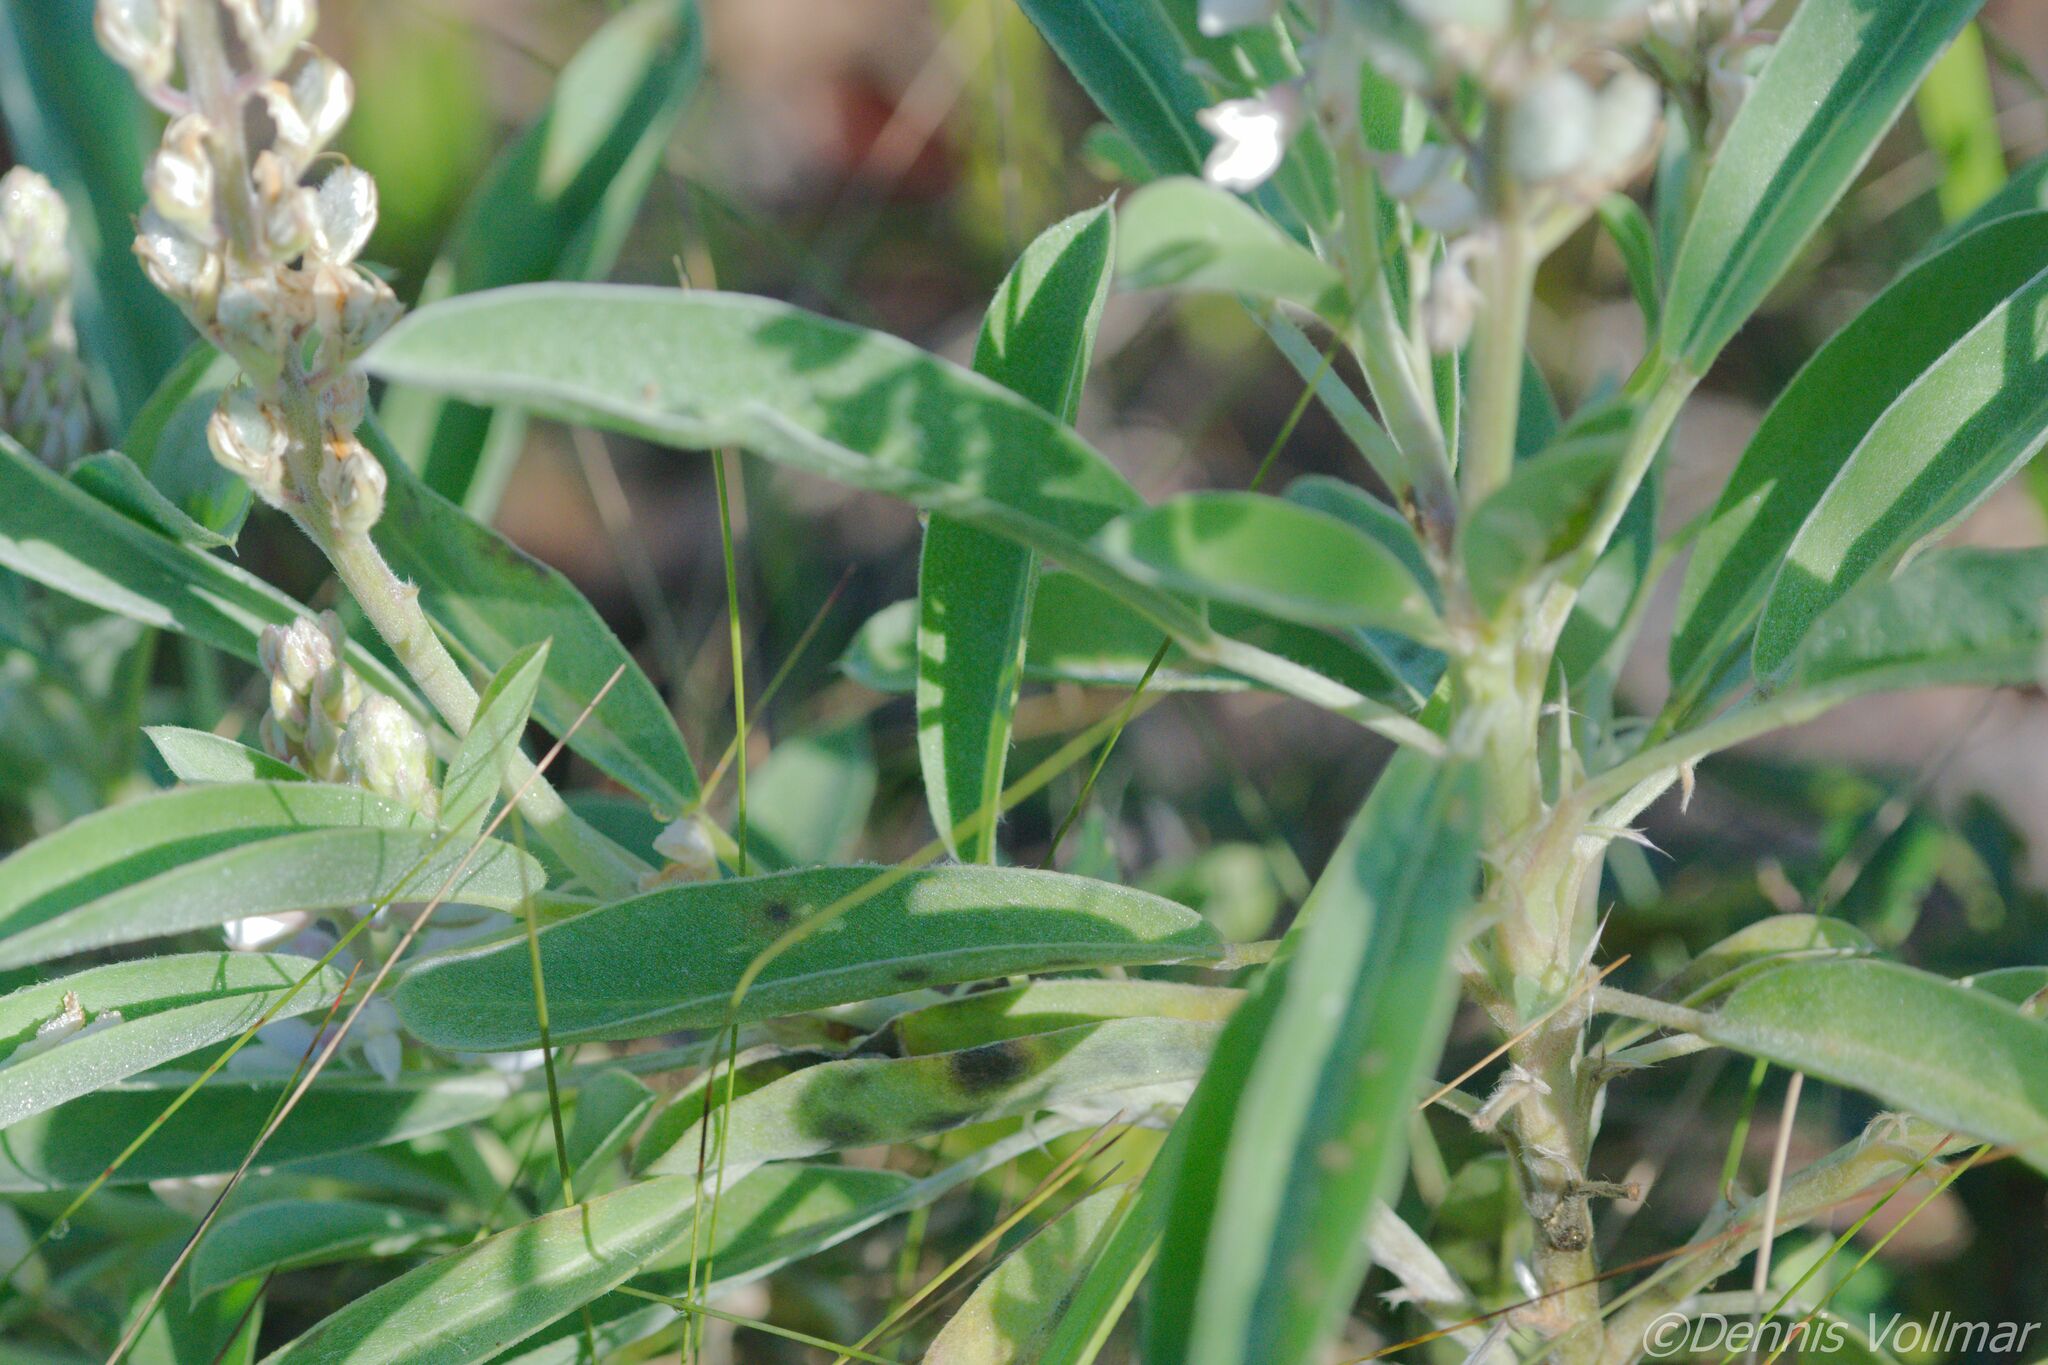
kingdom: Plantae
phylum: Tracheophyta
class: Magnoliopsida
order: Fabales
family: Fabaceae
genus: Lupinus
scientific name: Lupinus
